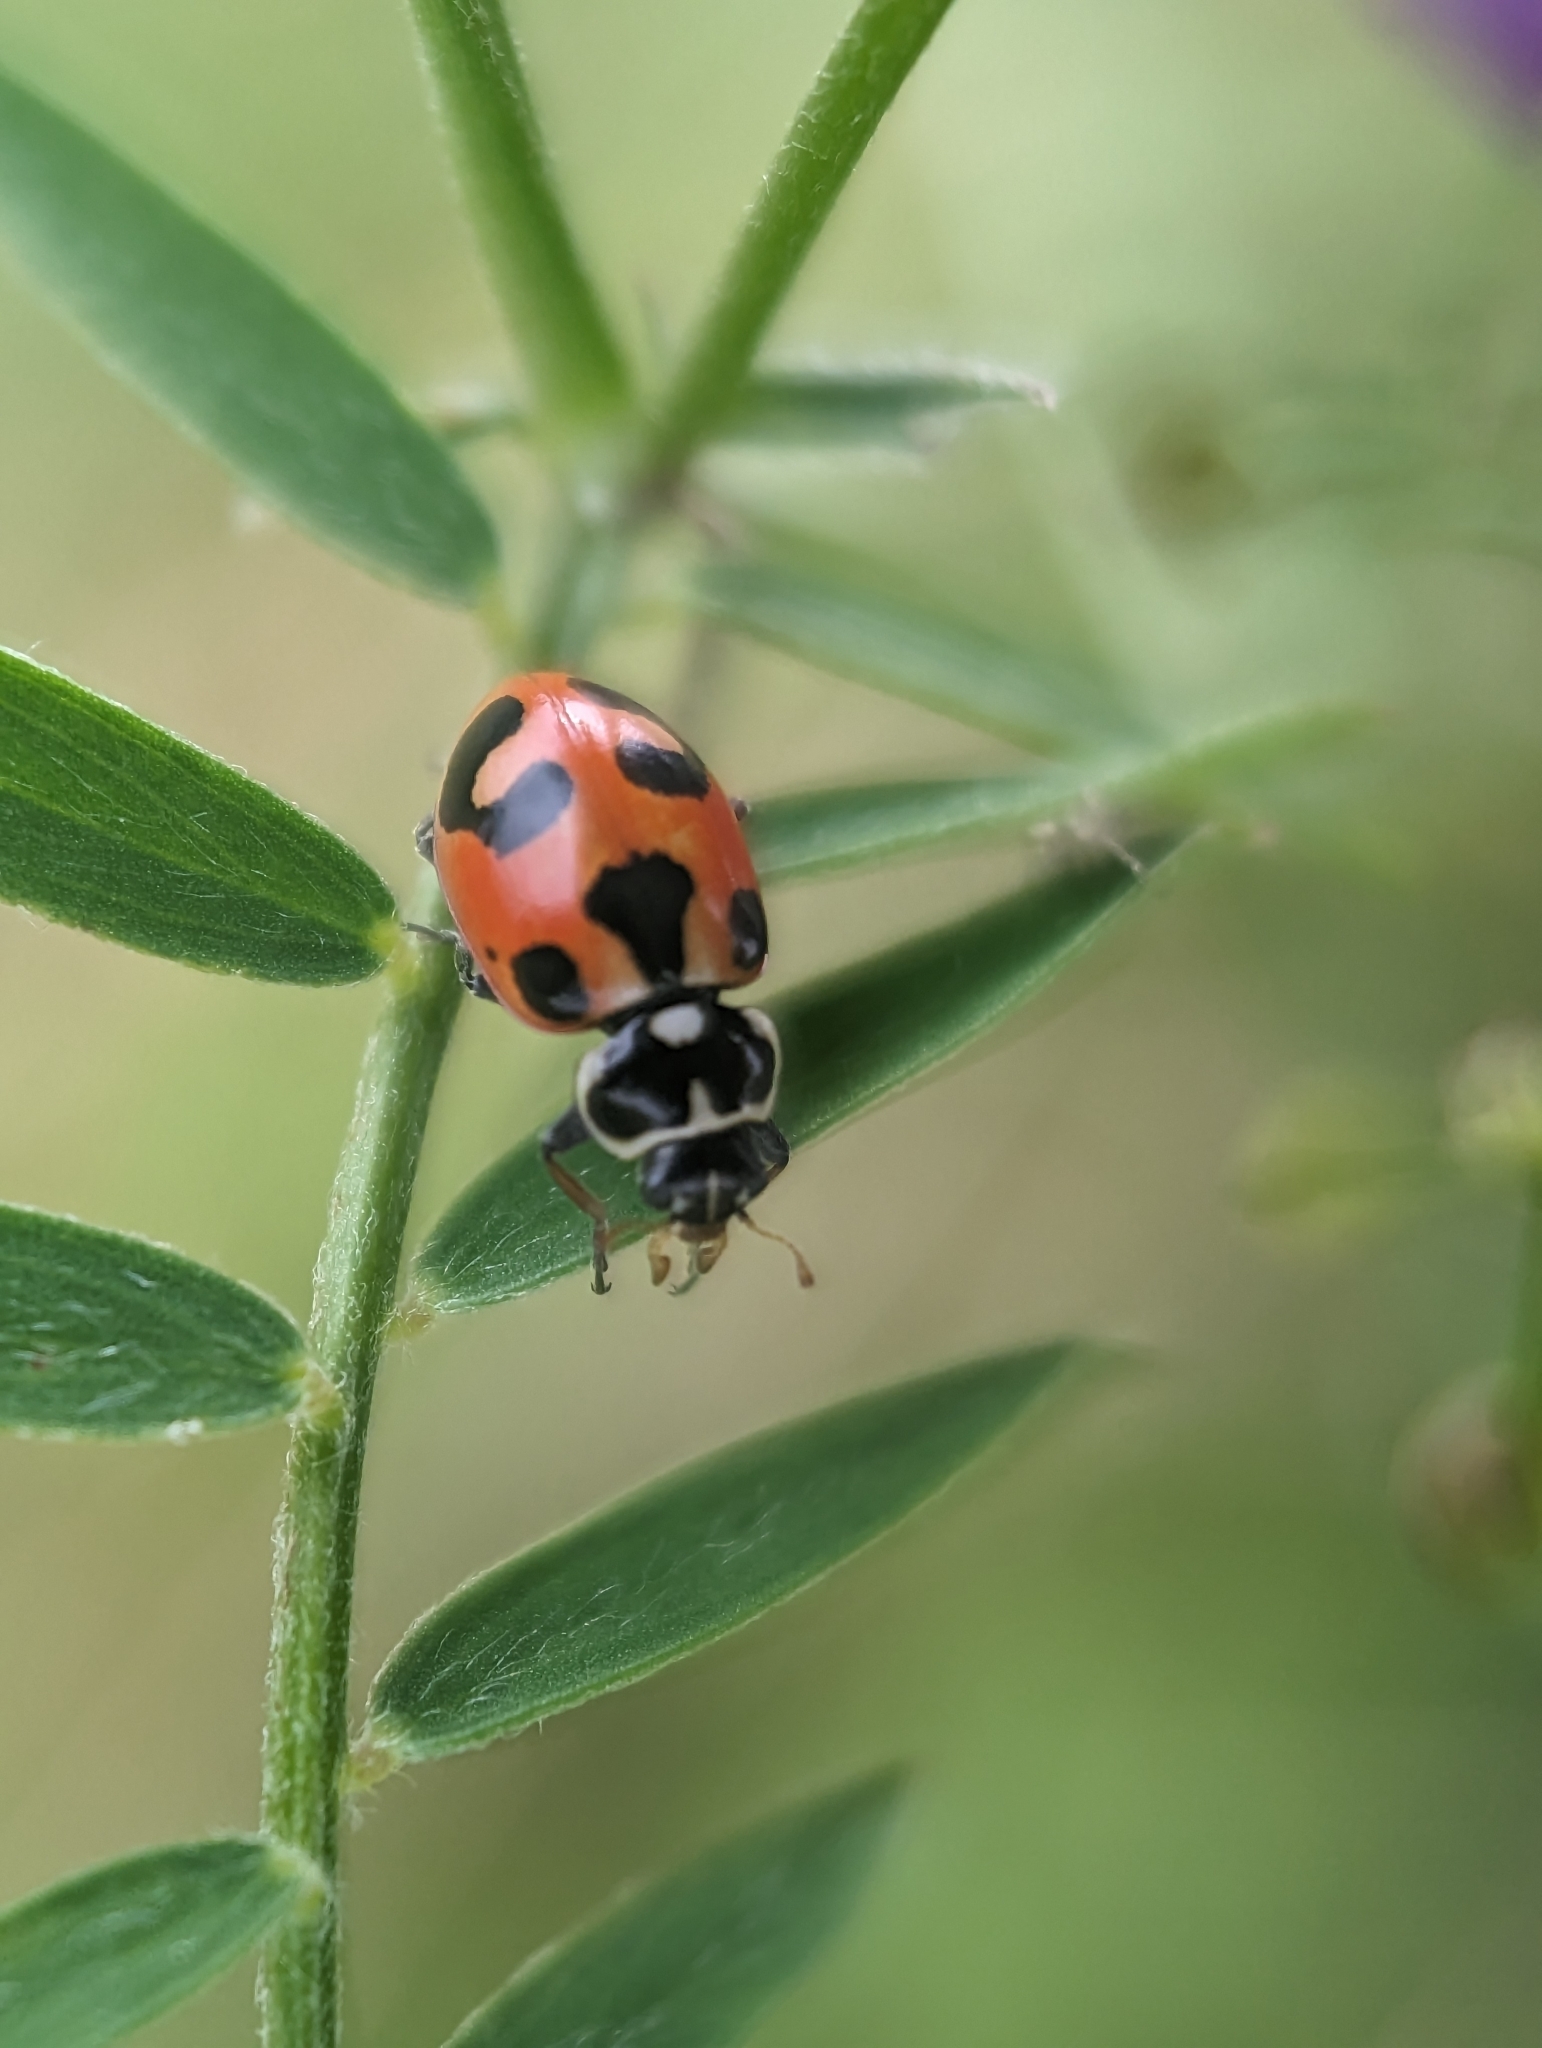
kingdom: Animalia
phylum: Arthropoda
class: Insecta
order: Coleoptera
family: Coccinellidae
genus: Hippodamia
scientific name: Hippodamia parenthesis
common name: Parenthesis lady beetle
